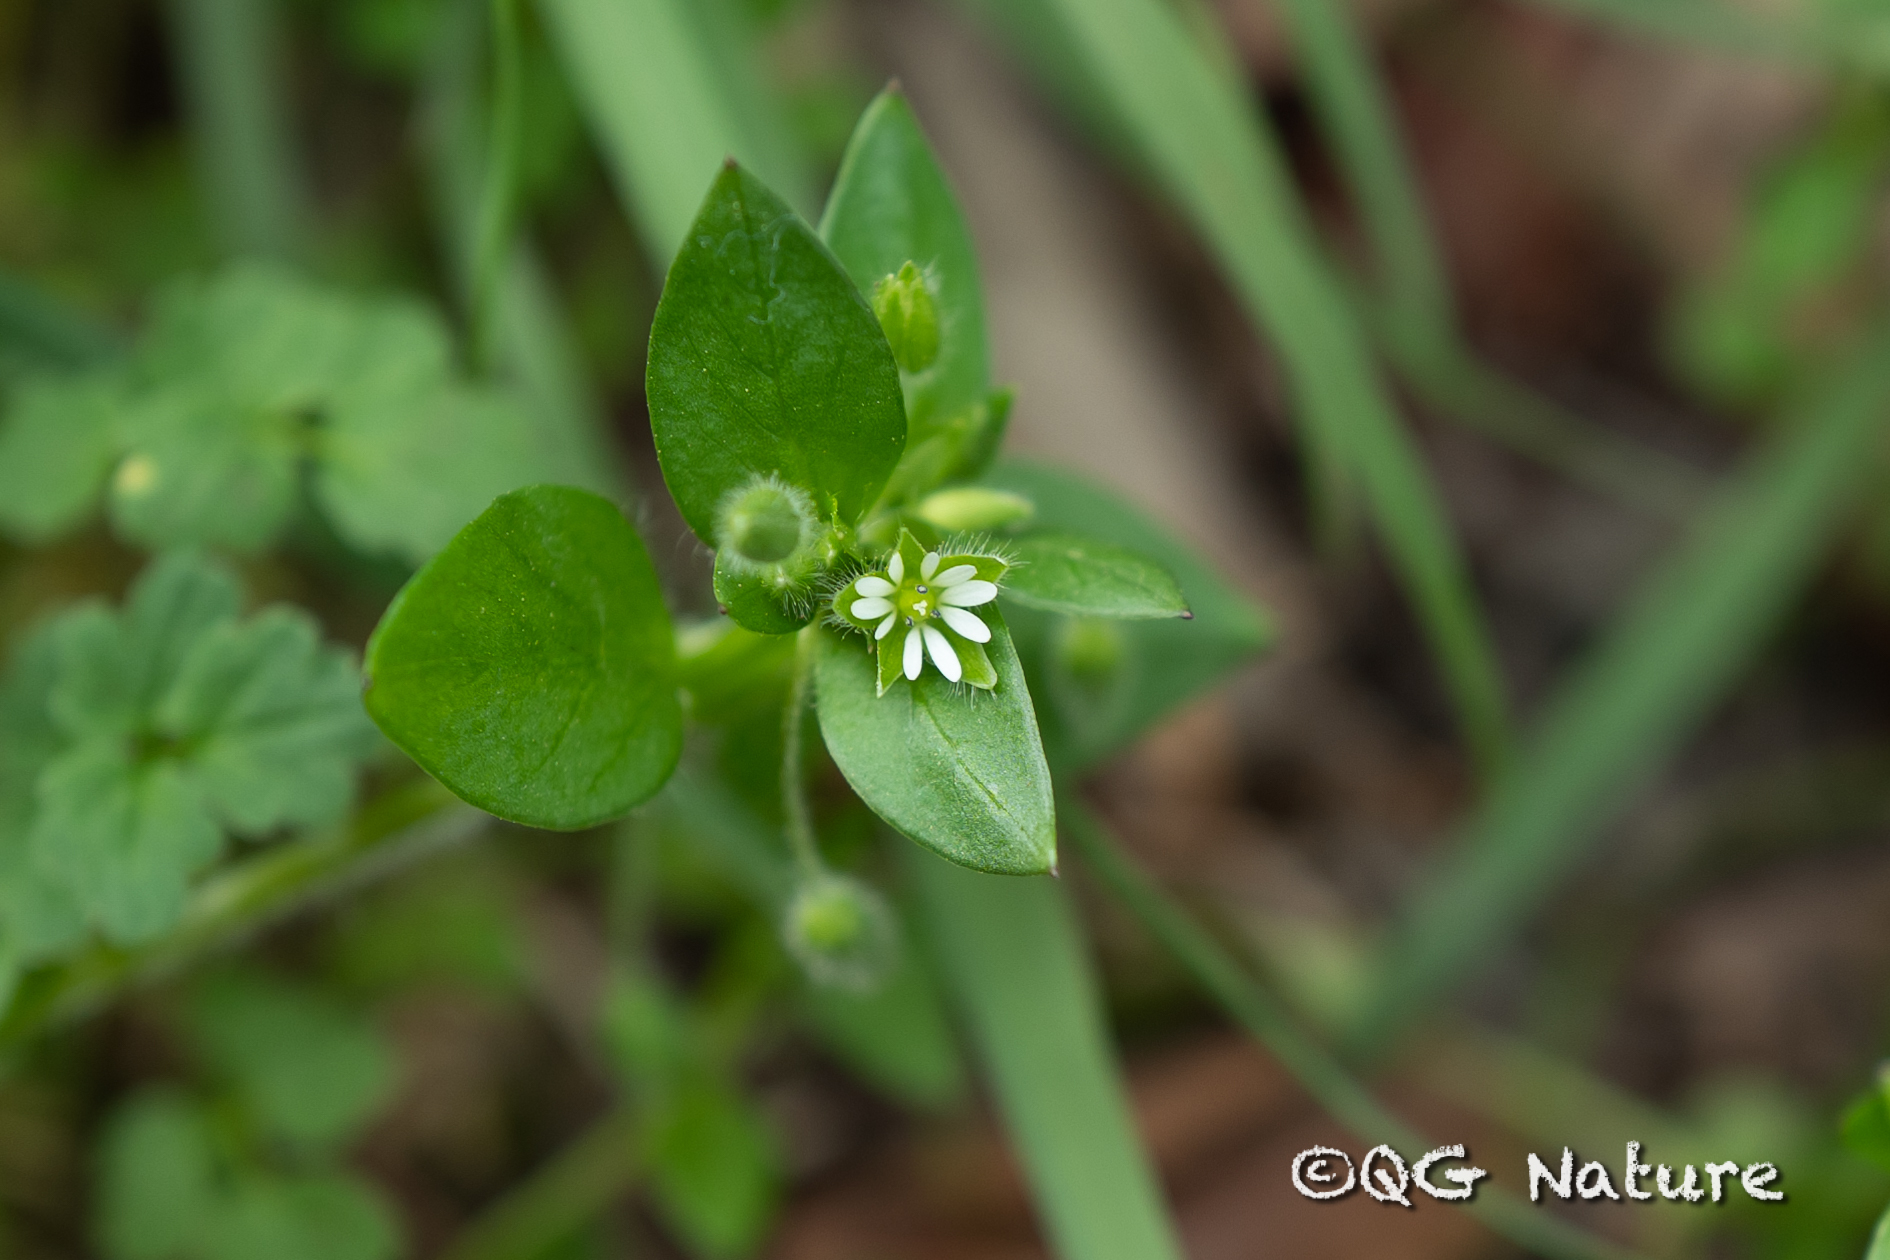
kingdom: Plantae
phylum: Tracheophyta
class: Magnoliopsida
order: Caryophyllales
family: Caryophyllaceae
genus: Stellaria
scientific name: Stellaria media
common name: Common chickweed
